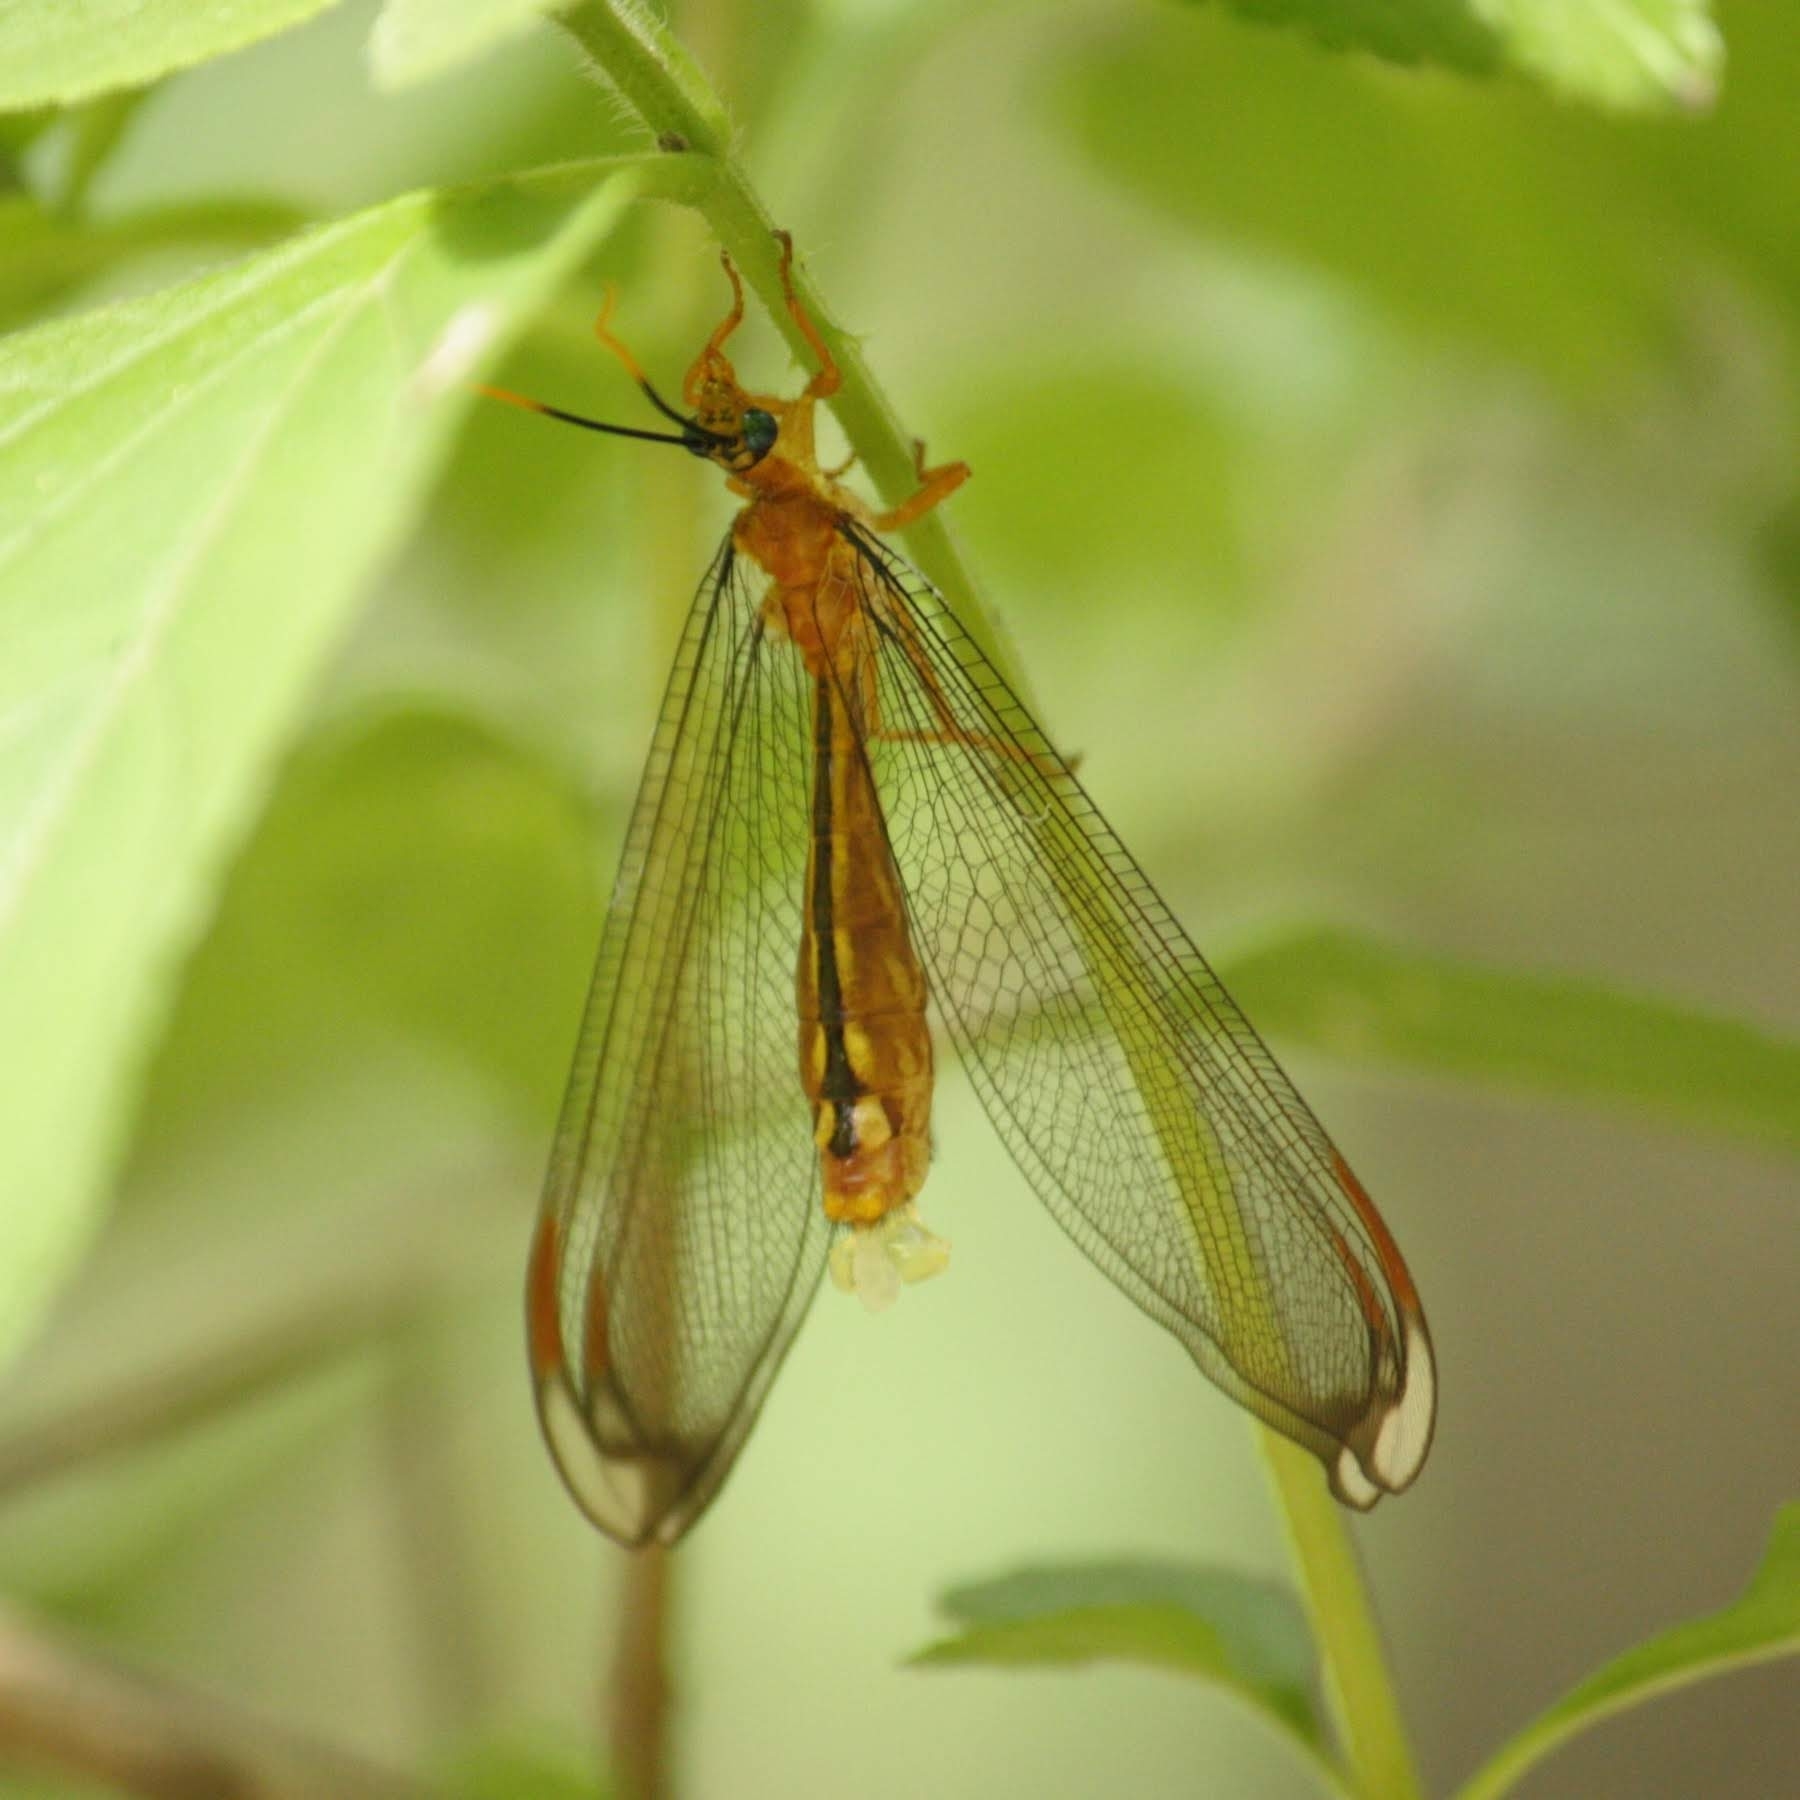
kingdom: Animalia
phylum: Arthropoda
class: Insecta
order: Neuroptera
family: Nymphidae
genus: Nymphes
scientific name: Nymphes myrmeleonoides
